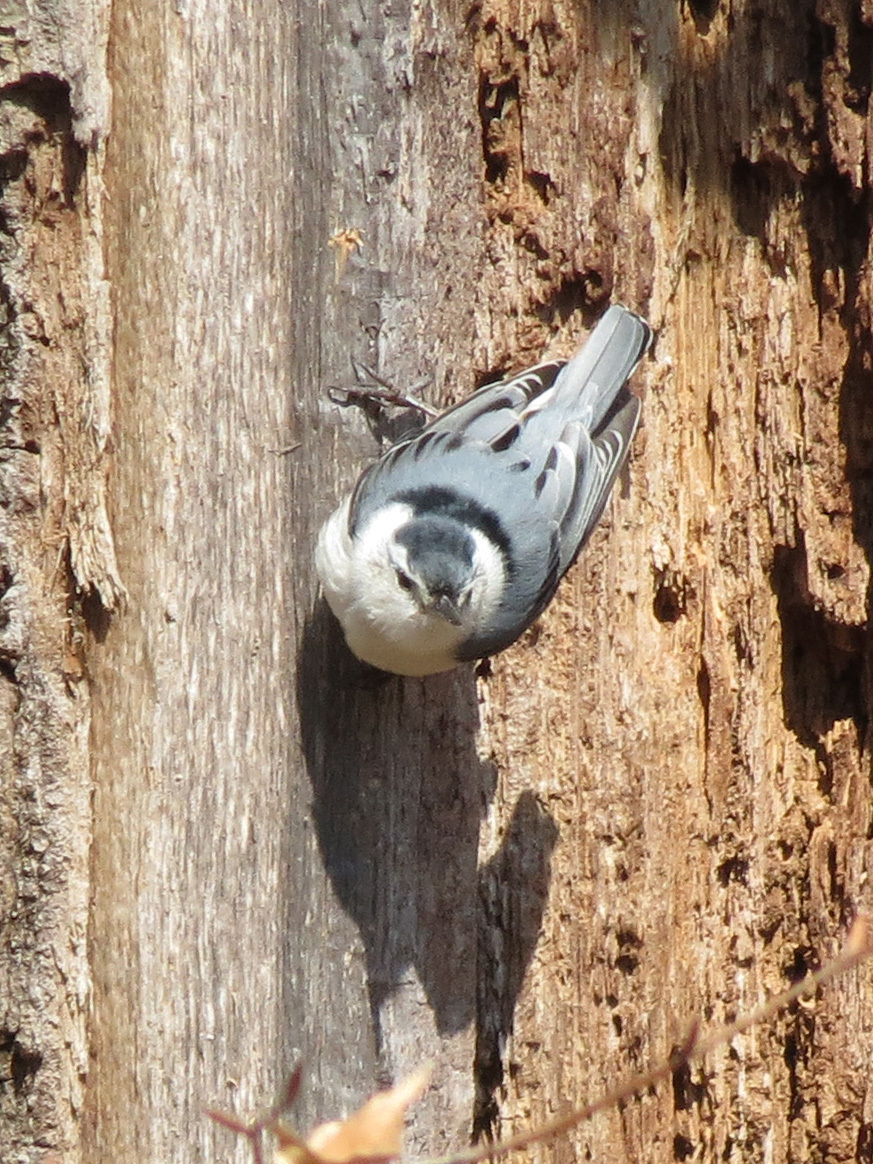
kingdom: Animalia
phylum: Chordata
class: Aves
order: Passeriformes
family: Sittidae
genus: Sitta
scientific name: Sitta carolinensis
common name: White-breasted nuthatch
